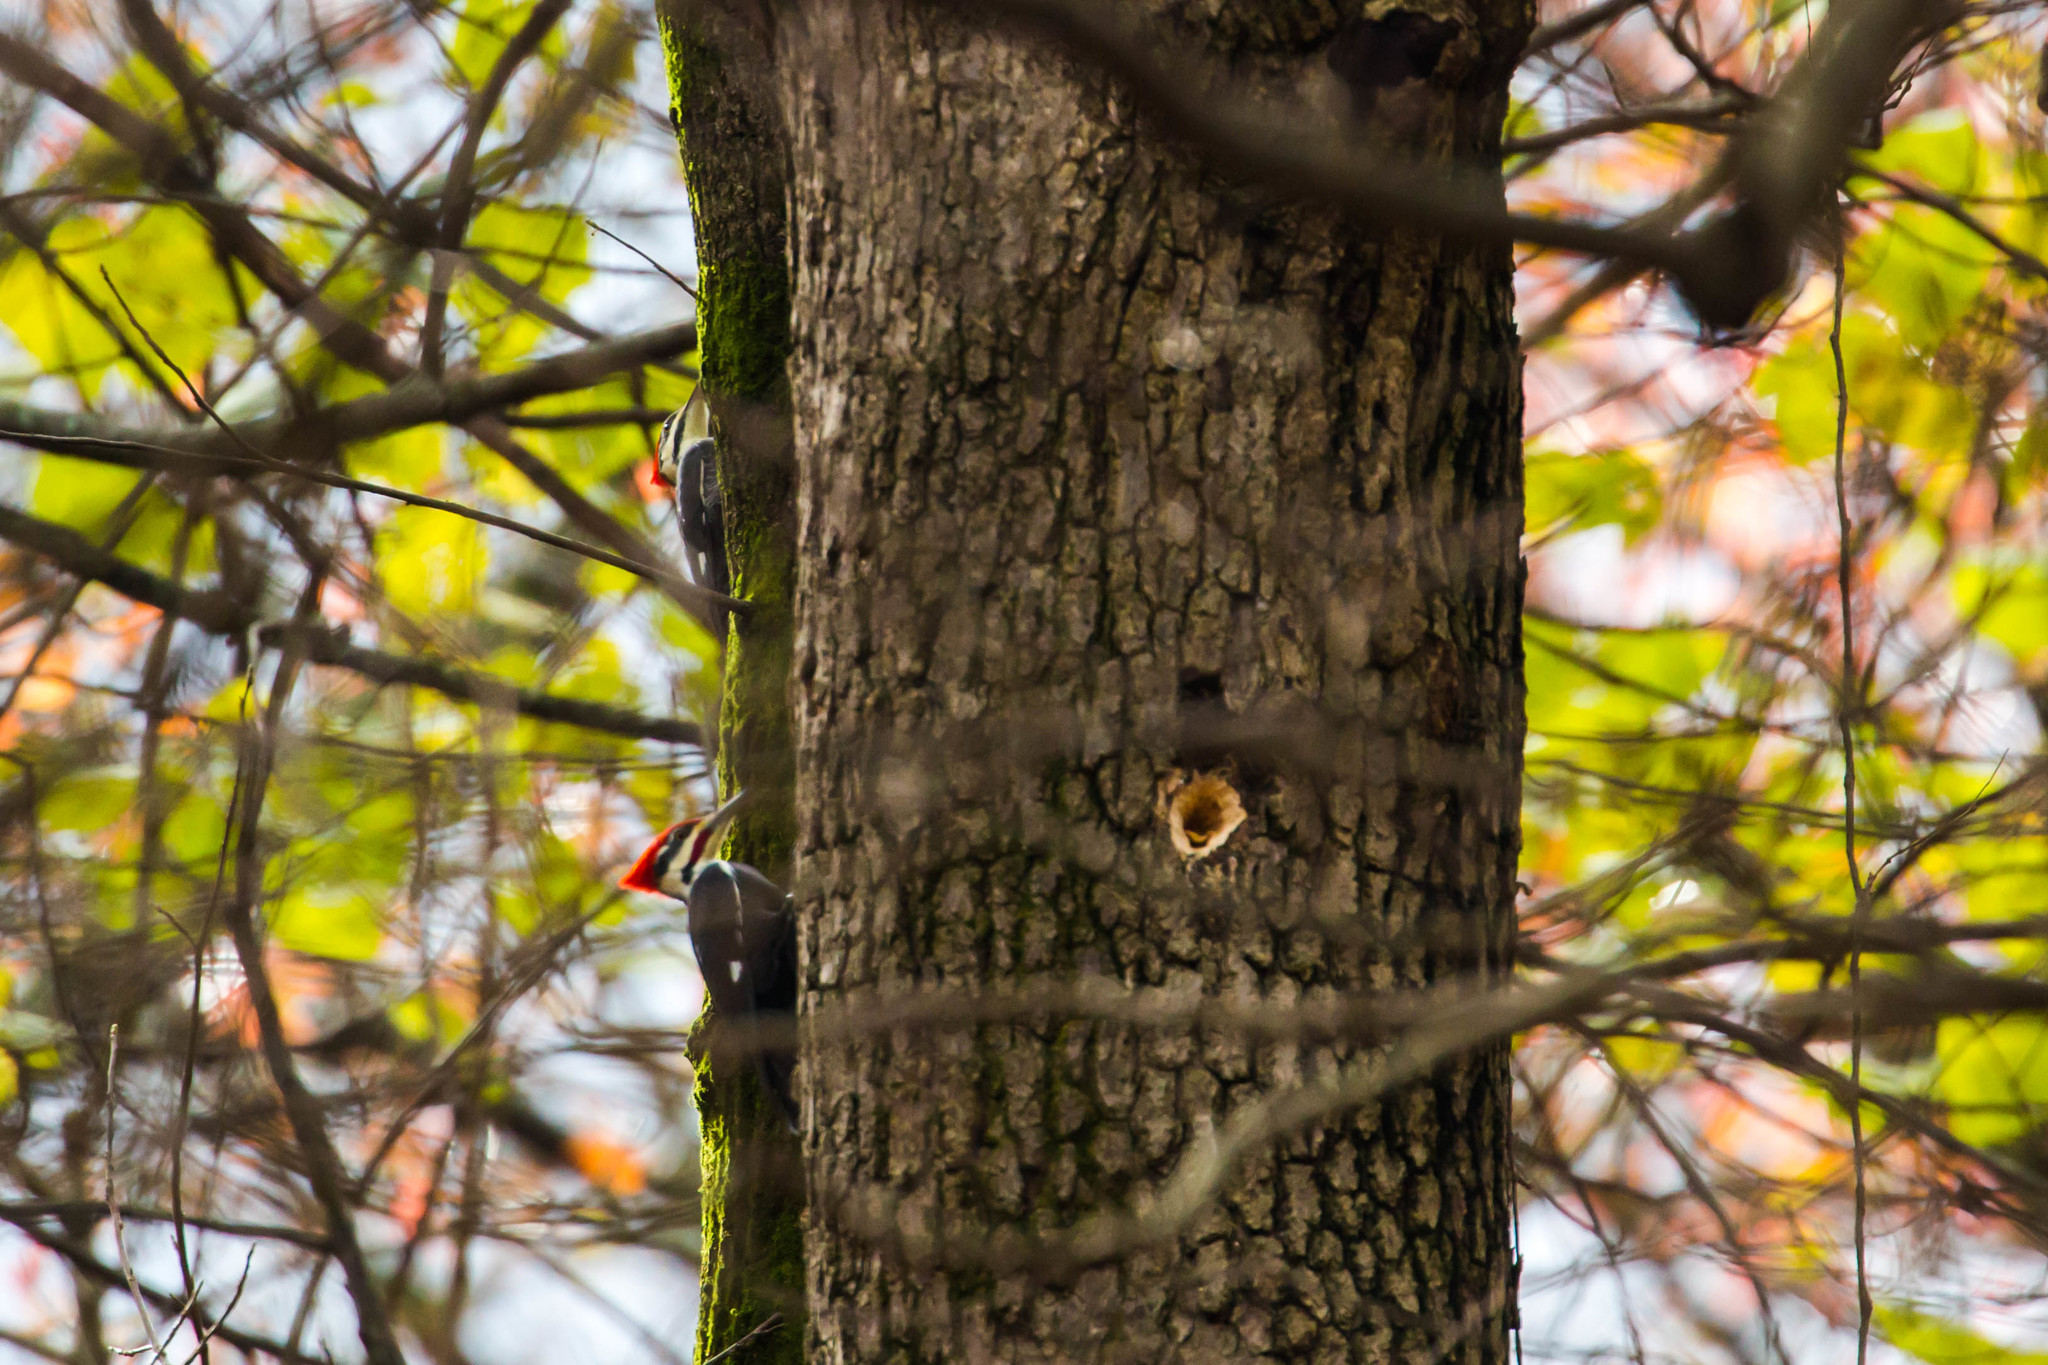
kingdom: Animalia
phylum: Chordata
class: Aves
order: Piciformes
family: Picidae
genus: Dryocopus
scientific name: Dryocopus pileatus
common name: Pileated woodpecker
